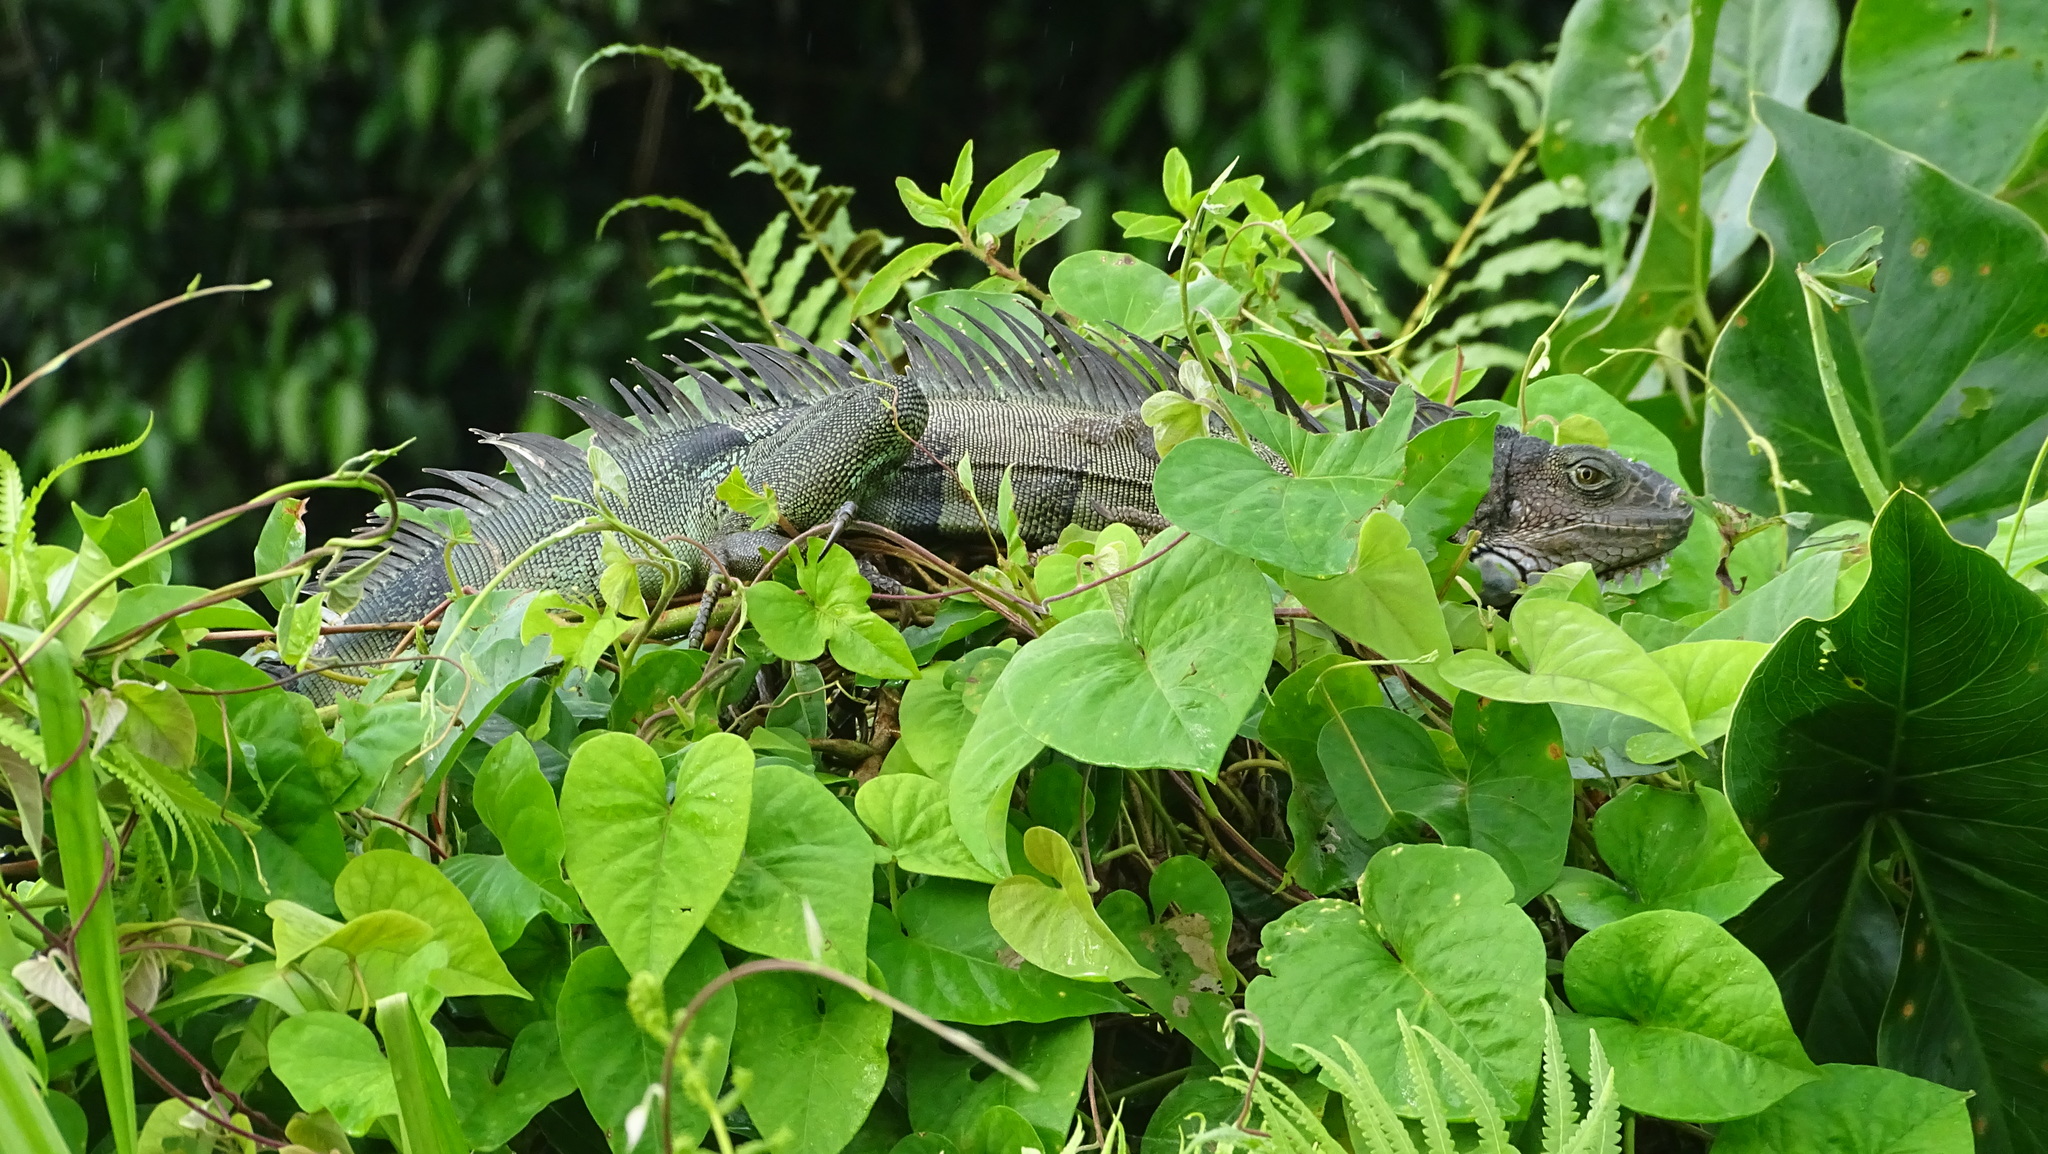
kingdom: Animalia
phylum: Chordata
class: Squamata
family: Iguanidae
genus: Iguana
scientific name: Iguana iguana
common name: Green iguana
